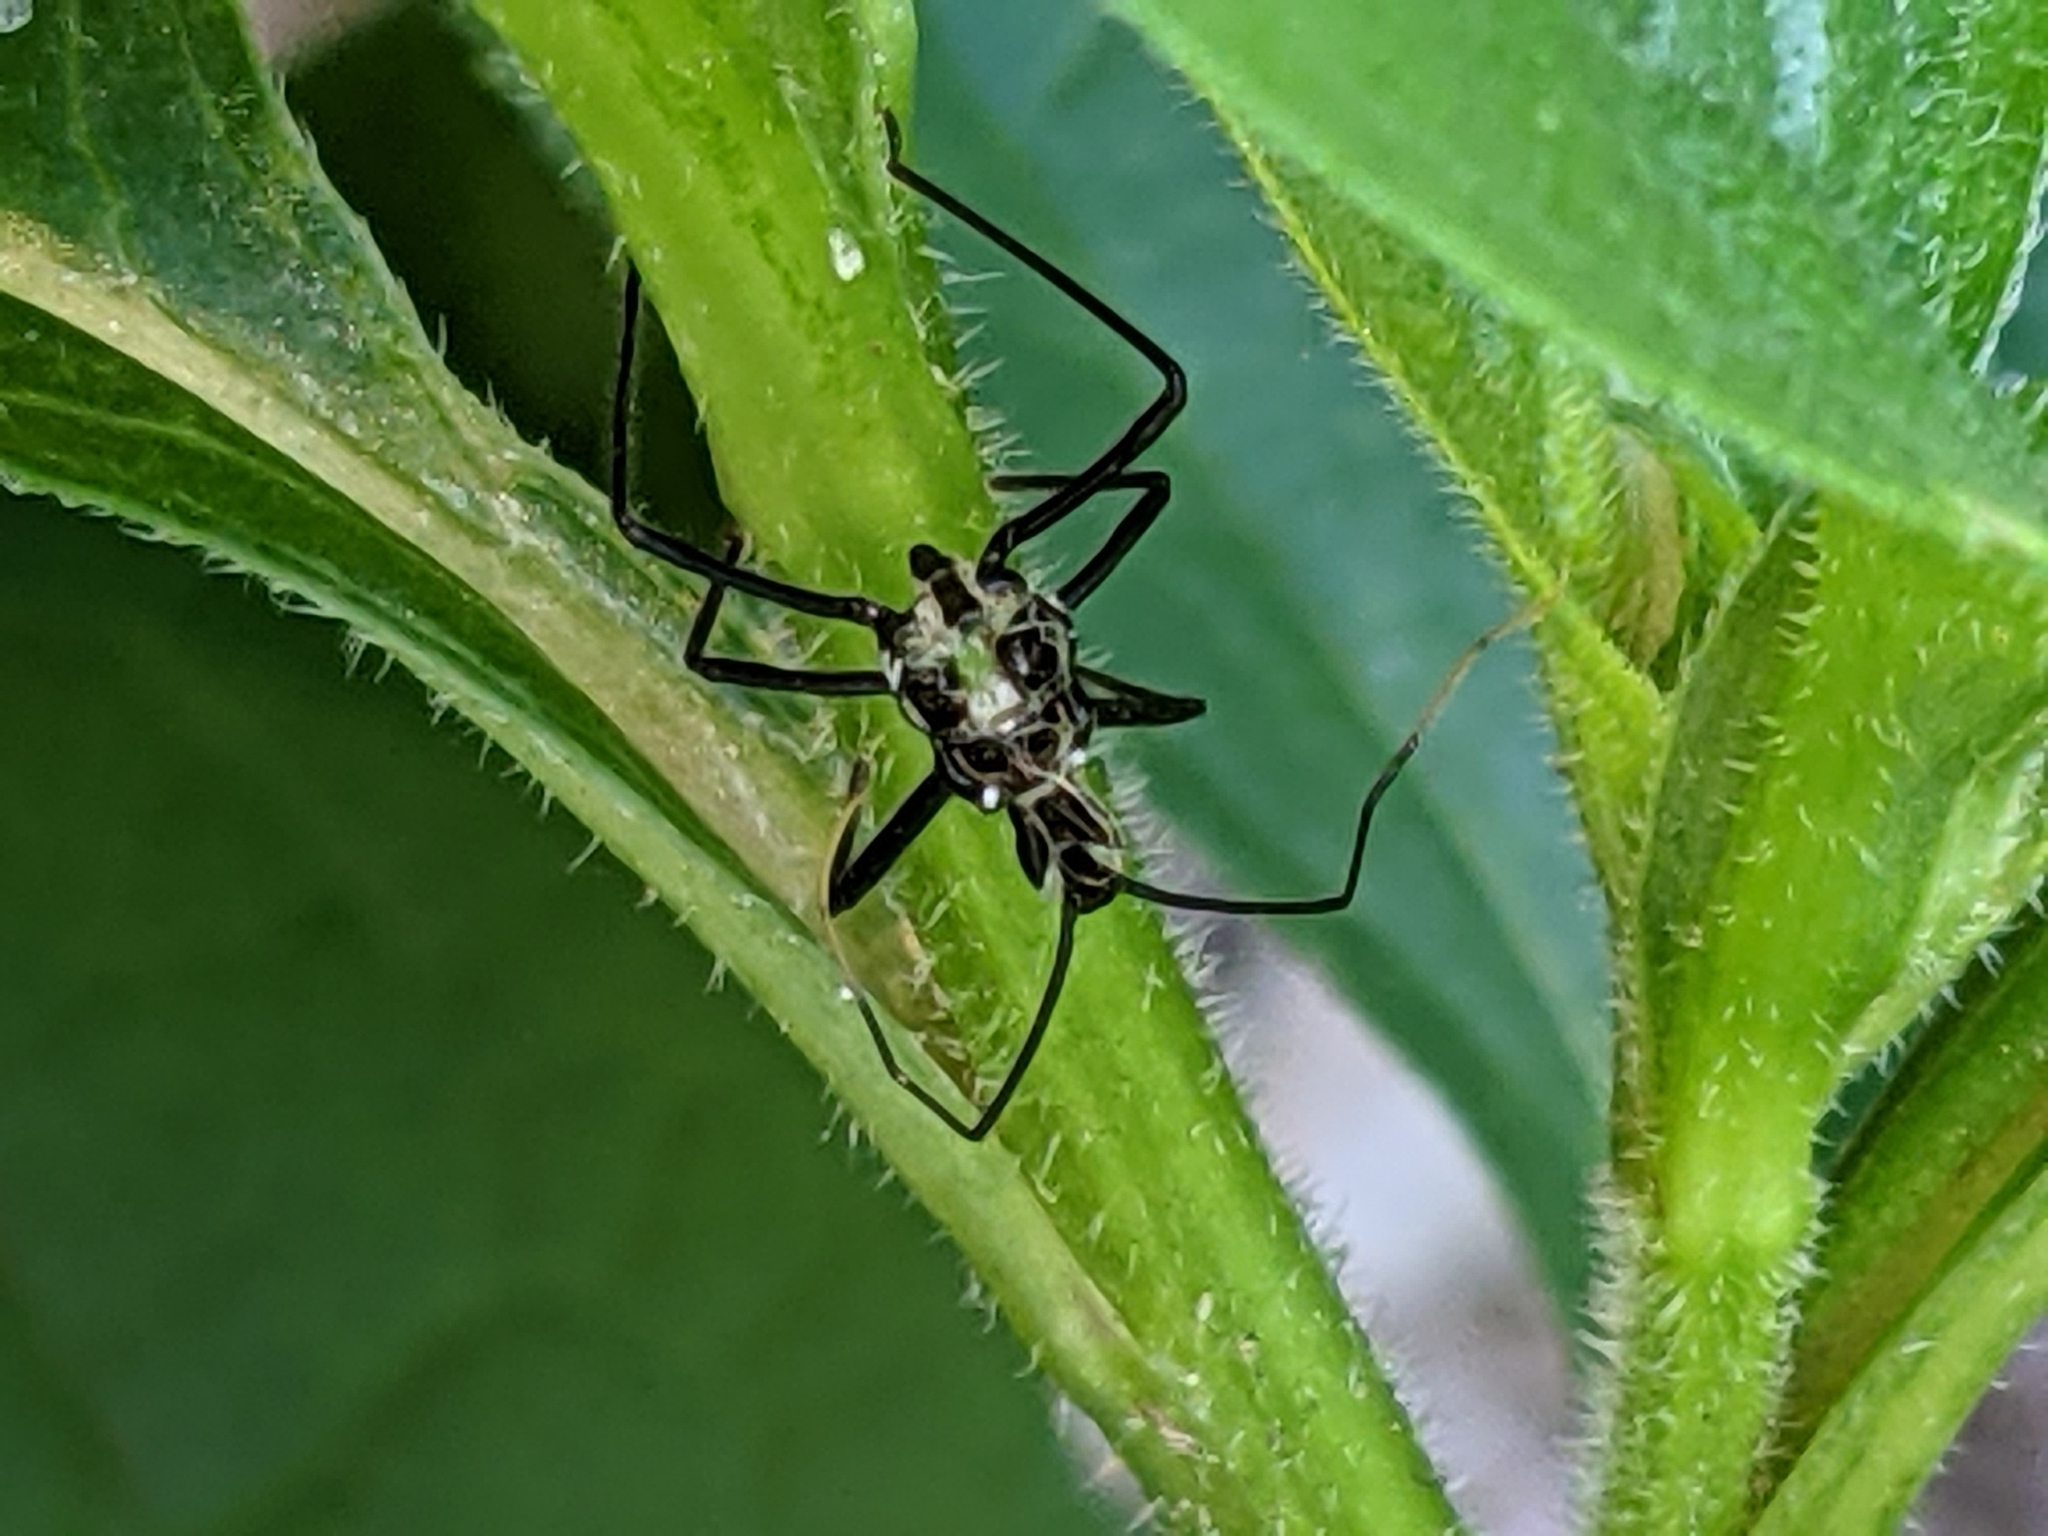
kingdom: Animalia
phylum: Arthropoda
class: Insecta
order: Hemiptera
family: Reduviidae
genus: Arilus
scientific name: Arilus cristatus
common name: North american wheel bug
